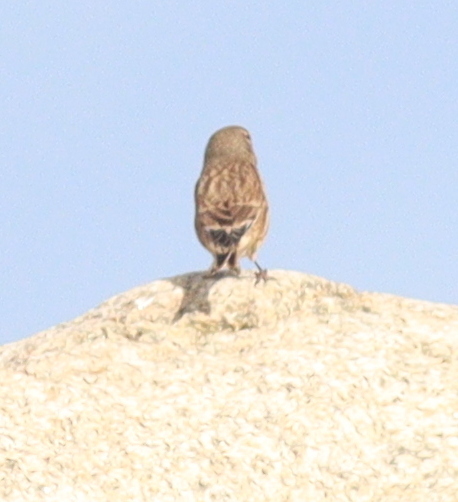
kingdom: Animalia
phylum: Chordata
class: Aves
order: Passeriformes
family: Fringillidae
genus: Linaria
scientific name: Linaria cannabina
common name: Common linnet
